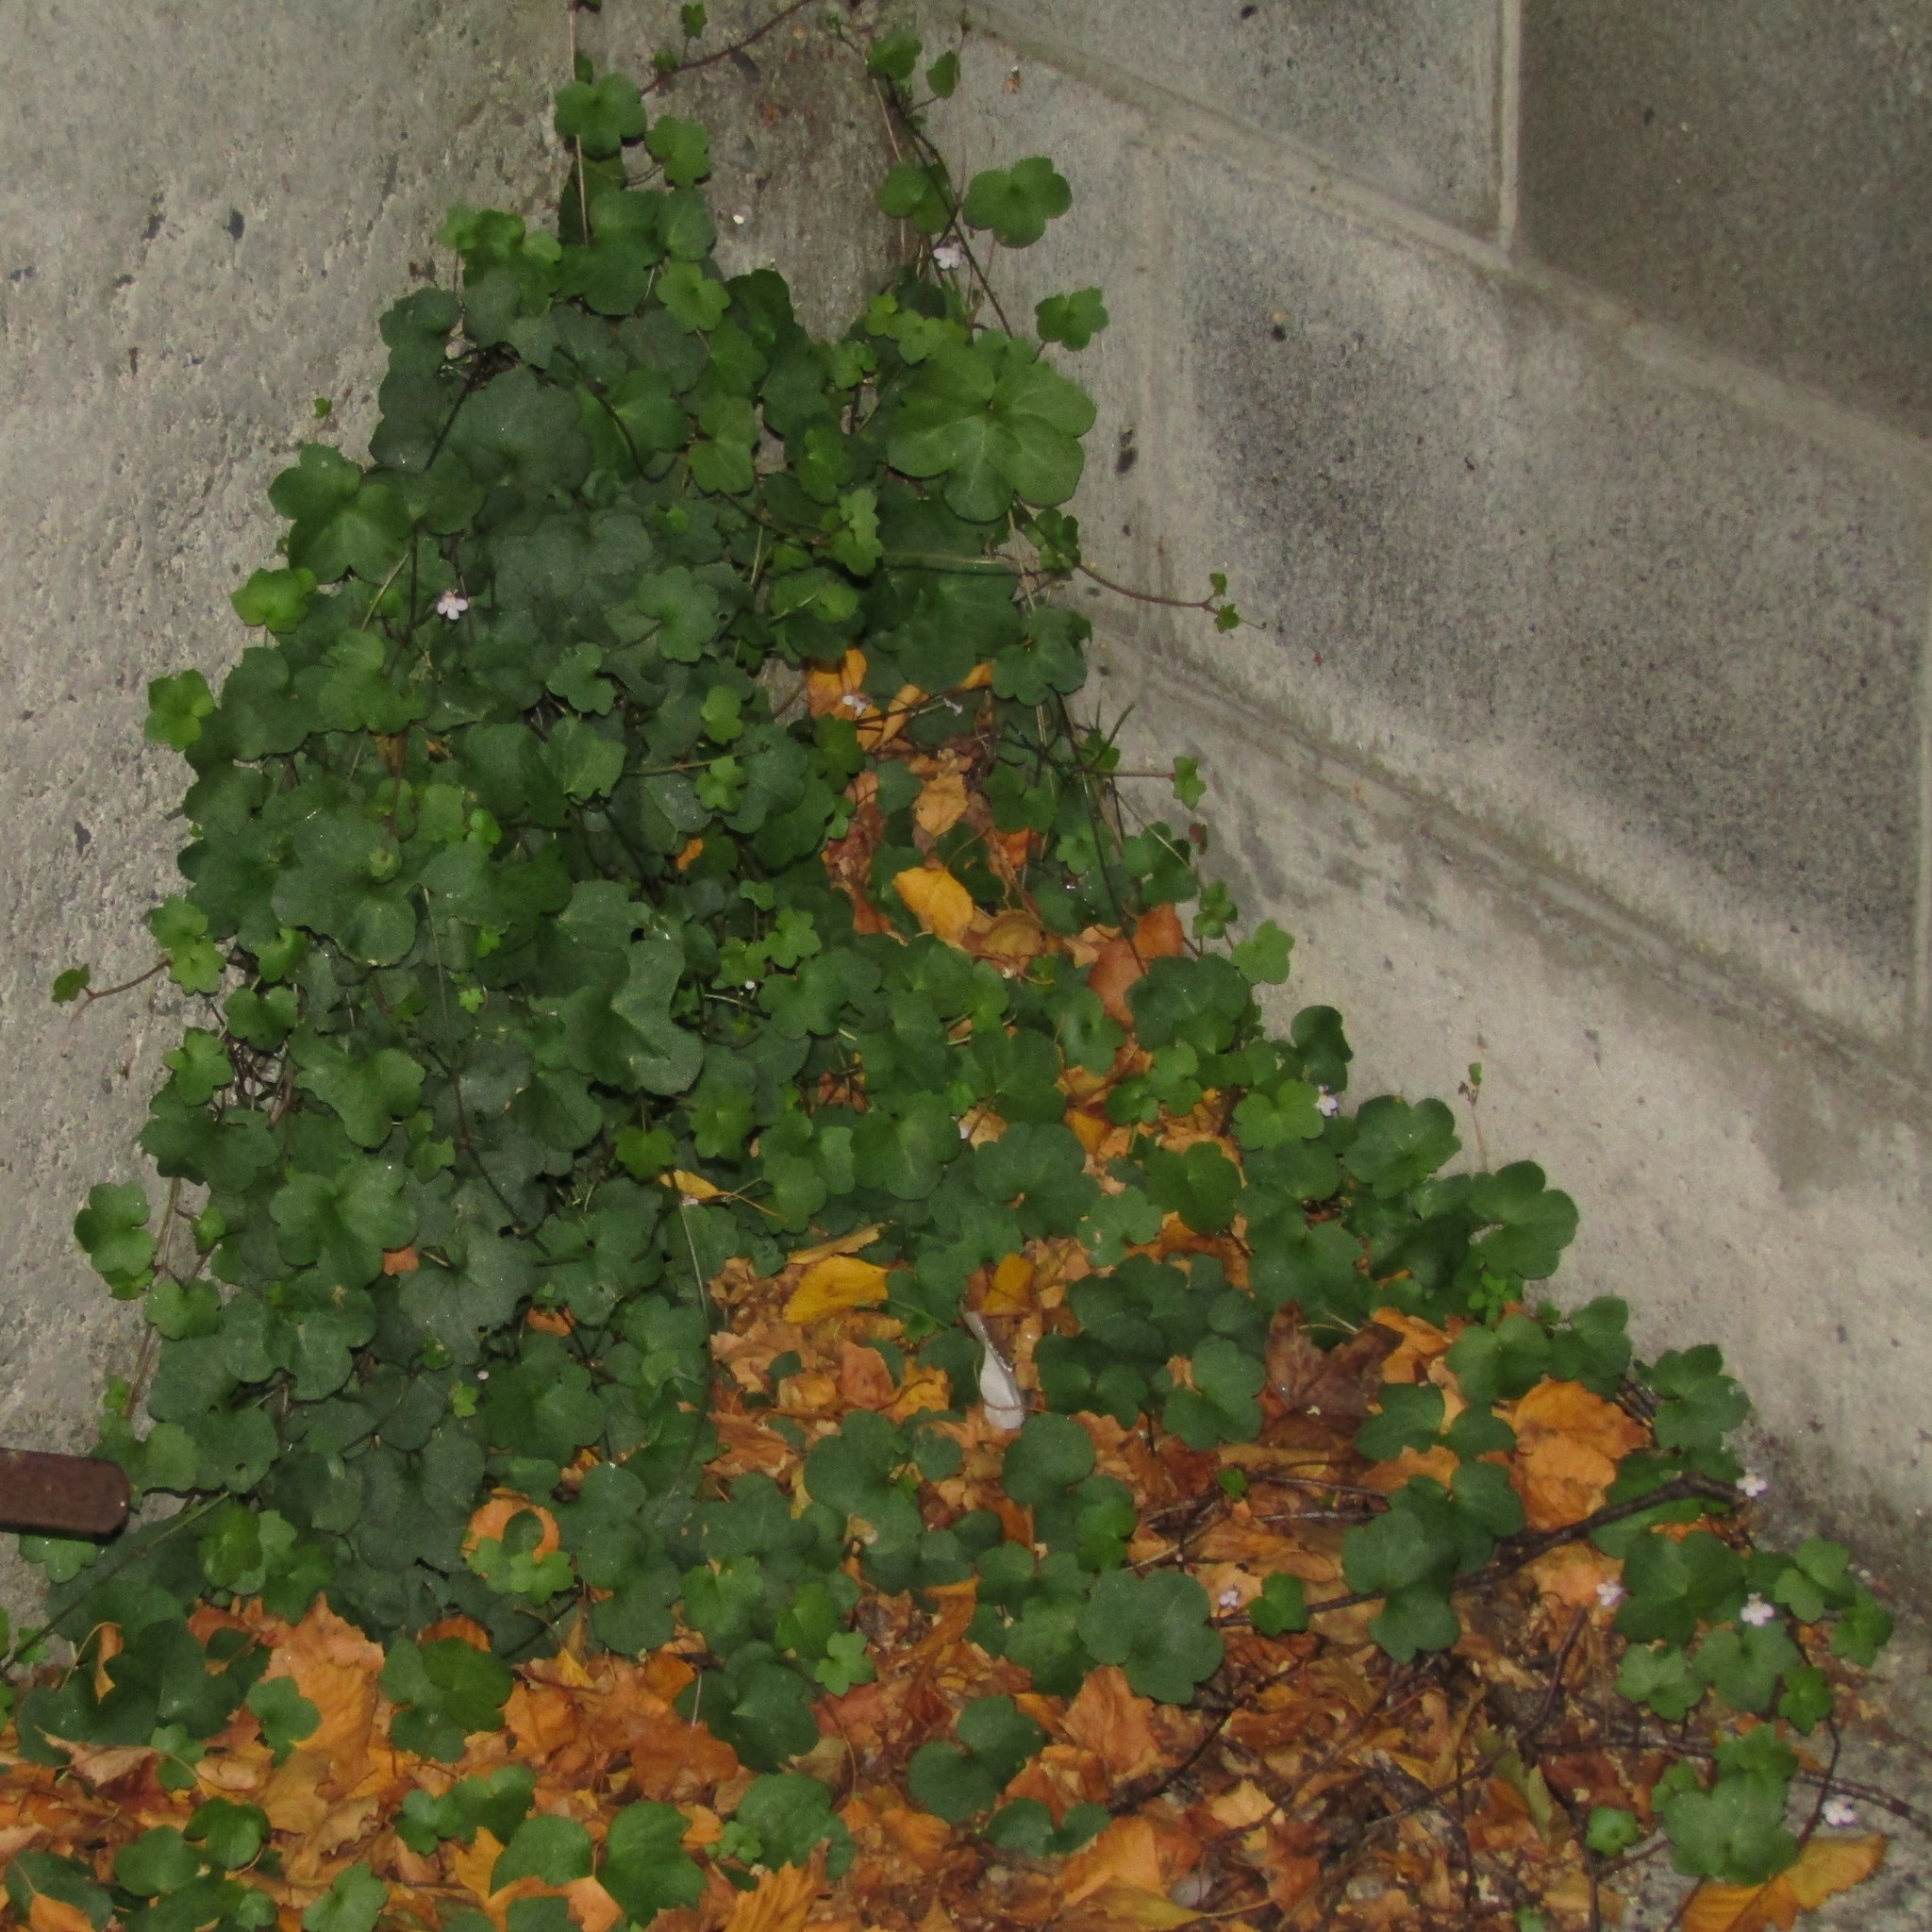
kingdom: Plantae
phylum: Tracheophyta
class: Magnoliopsida
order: Lamiales
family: Plantaginaceae
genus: Cymbalaria
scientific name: Cymbalaria muralis
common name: Ivy-leaved toadflax
